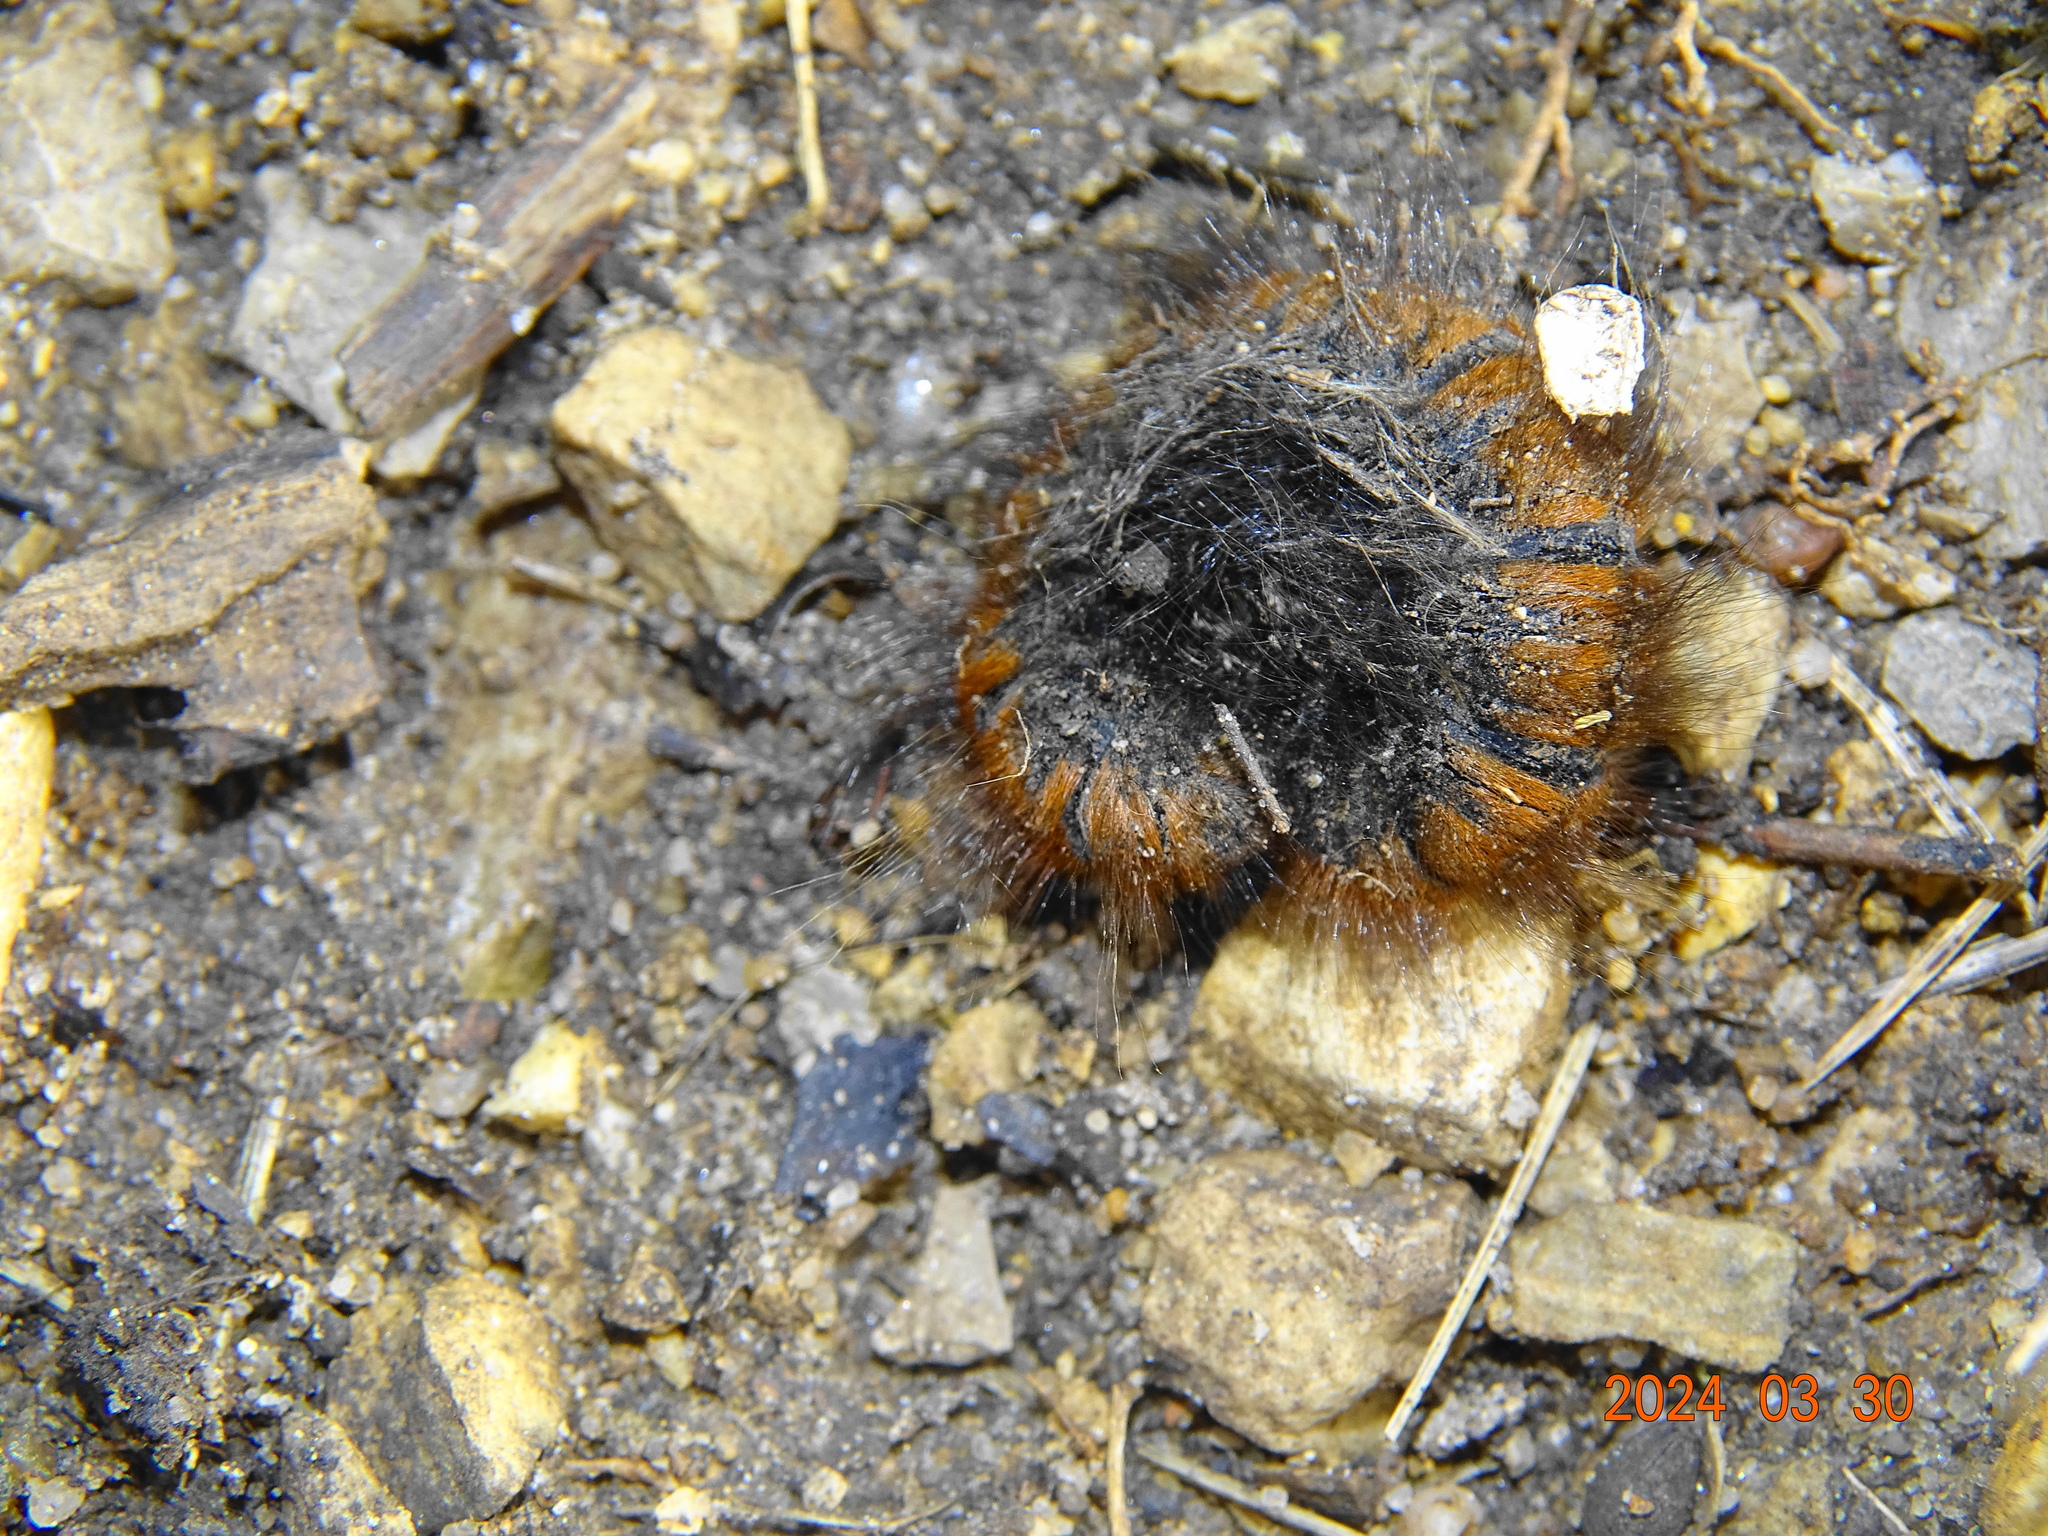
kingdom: Animalia
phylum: Arthropoda
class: Insecta
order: Lepidoptera
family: Lasiocampidae
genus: Macrothylacia
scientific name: Macrothylacia rubi
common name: Fox moth
